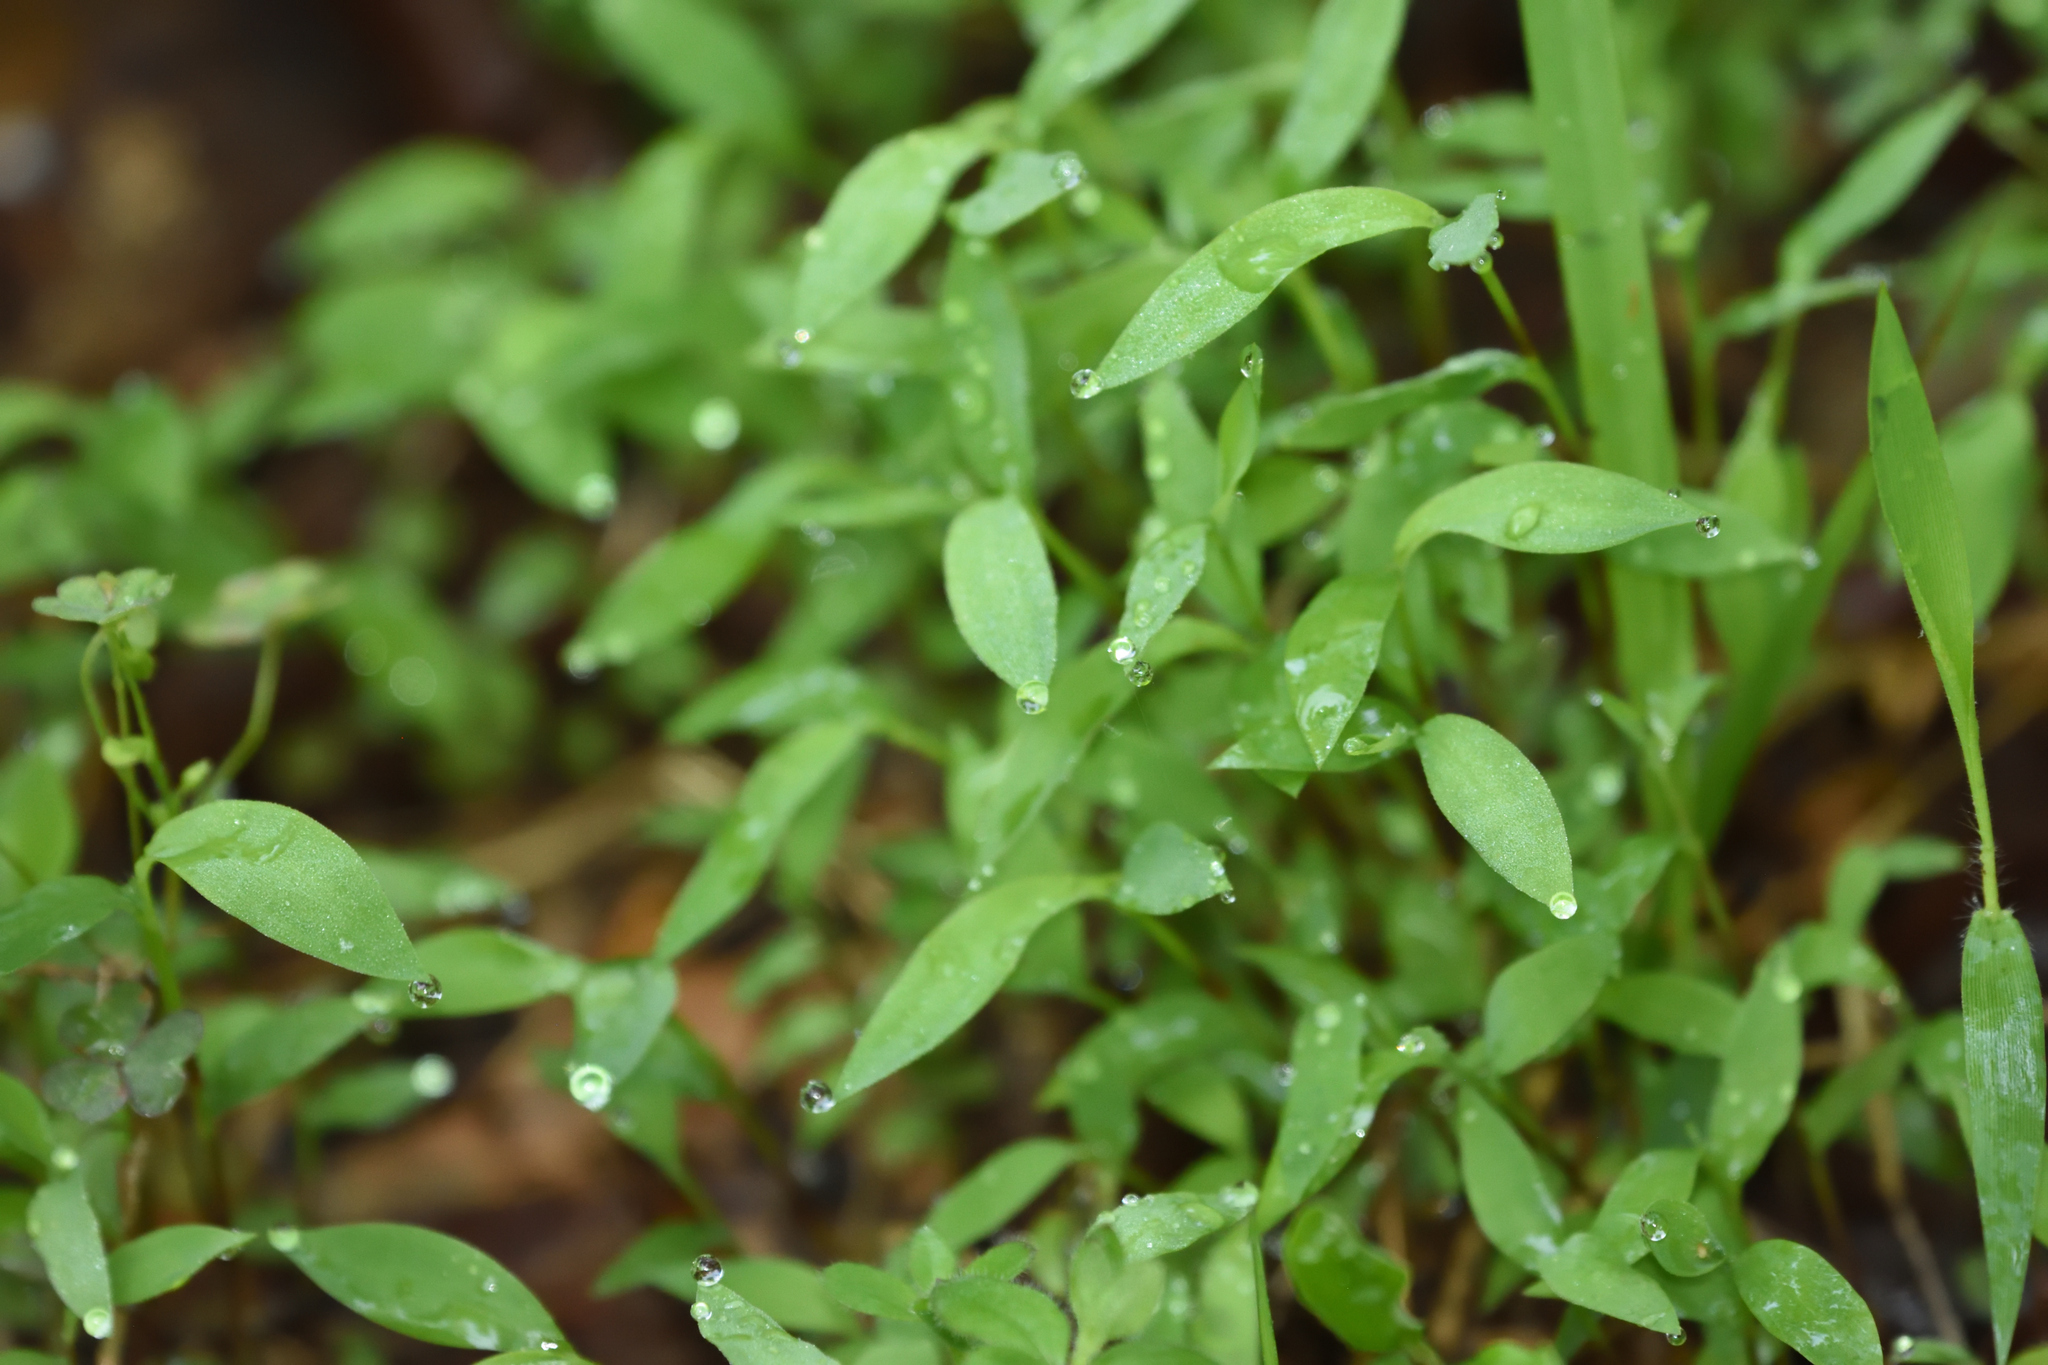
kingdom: Plantae
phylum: Tracheophyta
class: Liliopsida
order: Poales
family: Poaceae
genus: Microstegium
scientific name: Microstegium vimineum
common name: Japanese stiltgrass
